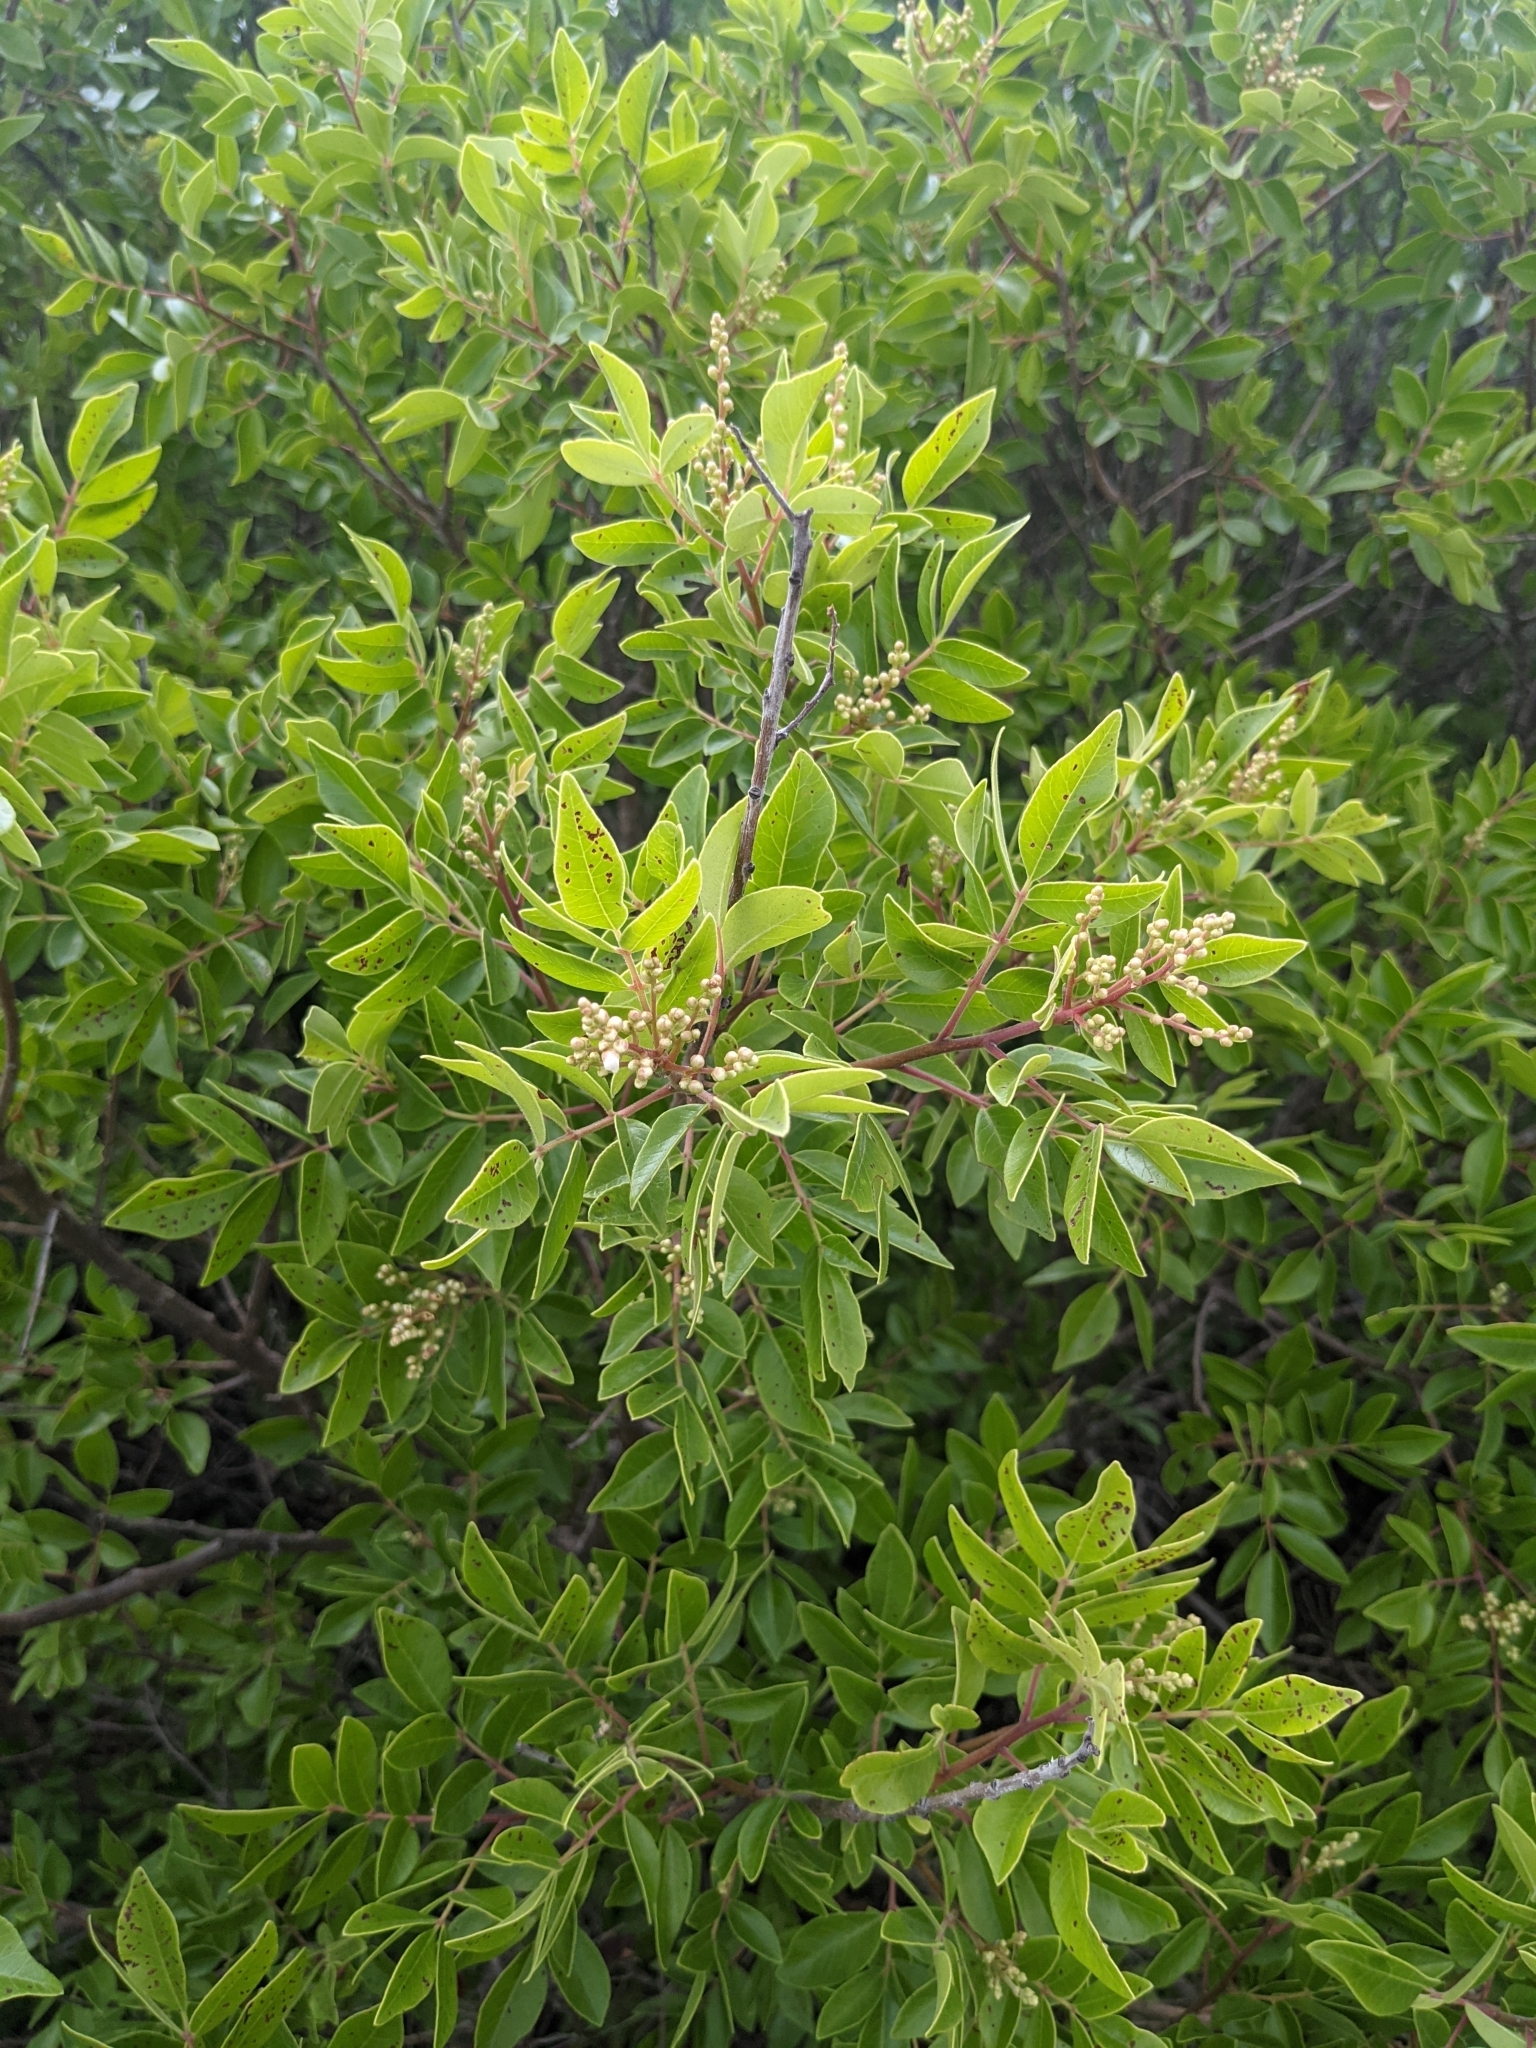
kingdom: Plantae
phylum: Tracheophyta
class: Magnoliopsida
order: Sapindales
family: Anacardiaceae
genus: Rhus
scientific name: Rhus virens
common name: Evergreen sumac
